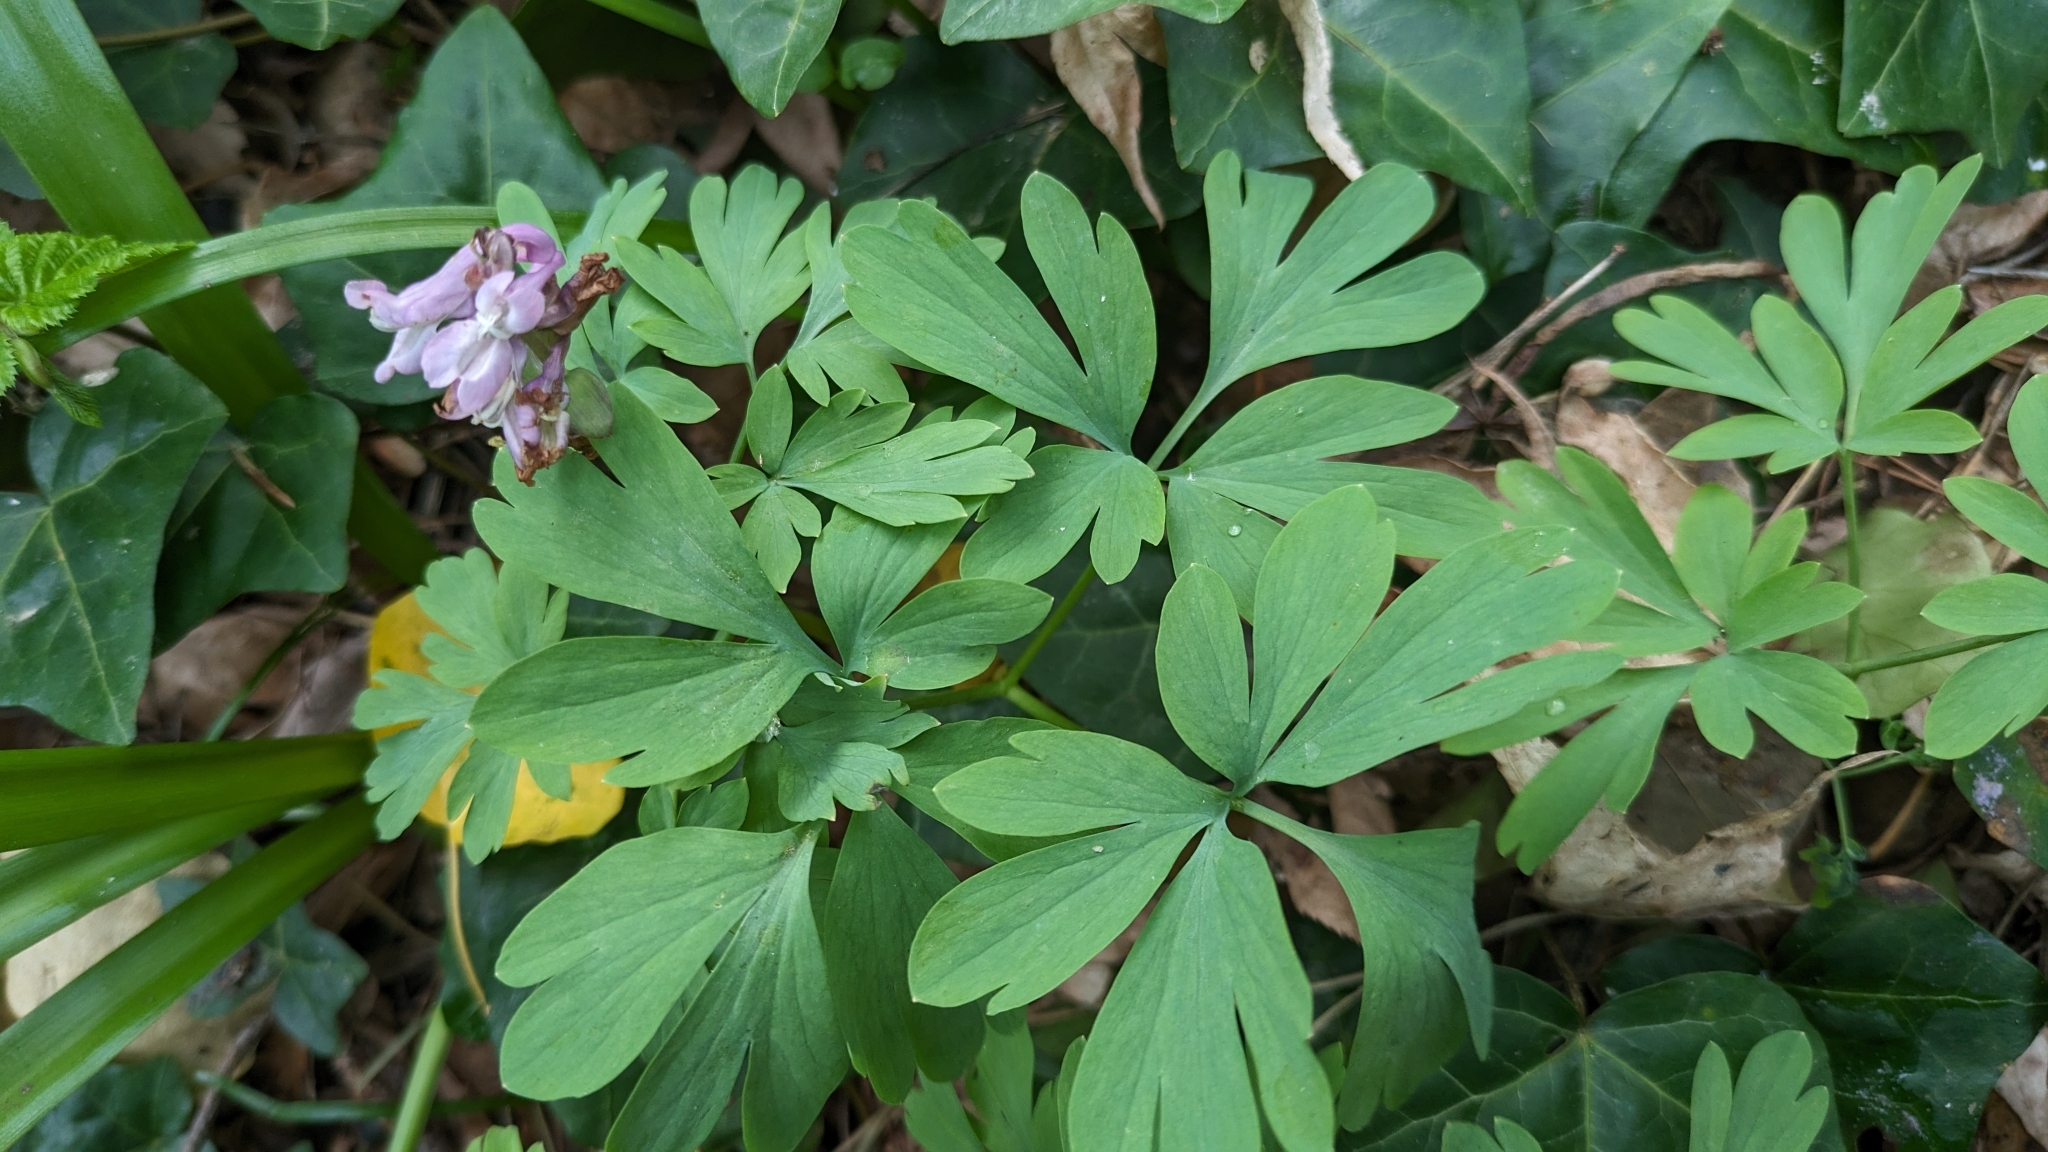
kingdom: Plantae
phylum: Tracheophyta
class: Magnoliopsida
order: Ranunculales
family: Papaveraceae
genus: Corydalis
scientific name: Corydalis cava
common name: Hollowroot
